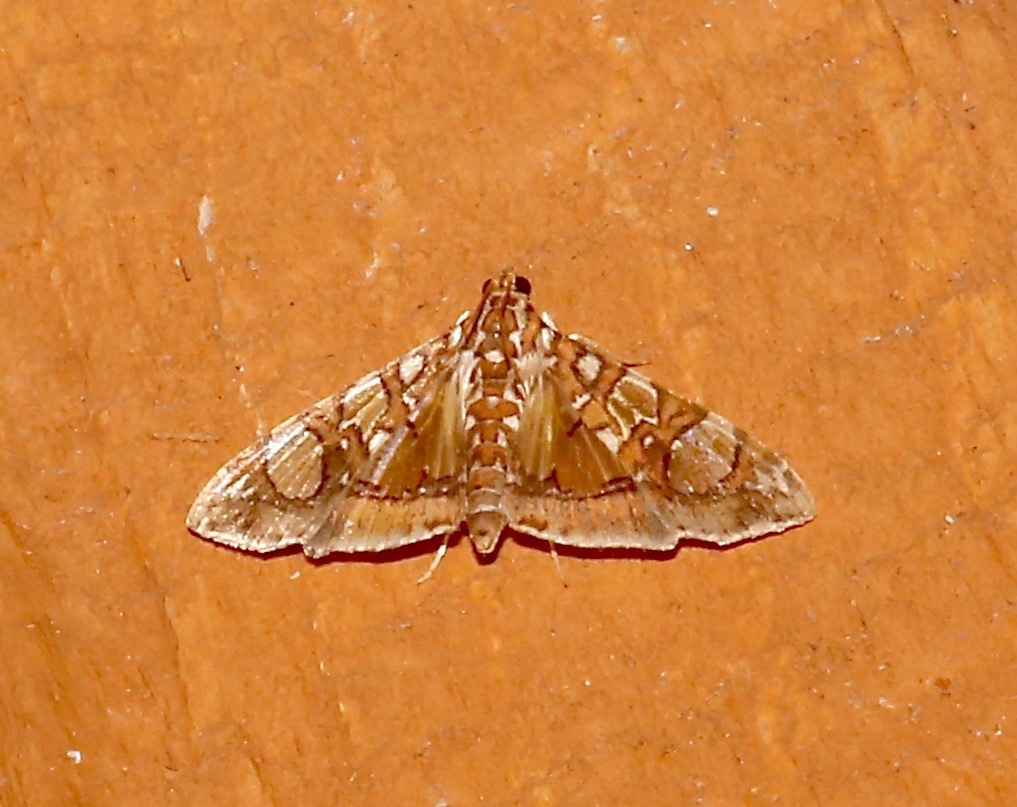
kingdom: Animalia
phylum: Arthropoda
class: Insecta
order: Lepidoptera
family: Crambidae
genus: Glyphodes
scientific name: Glyphodes sibillalis
